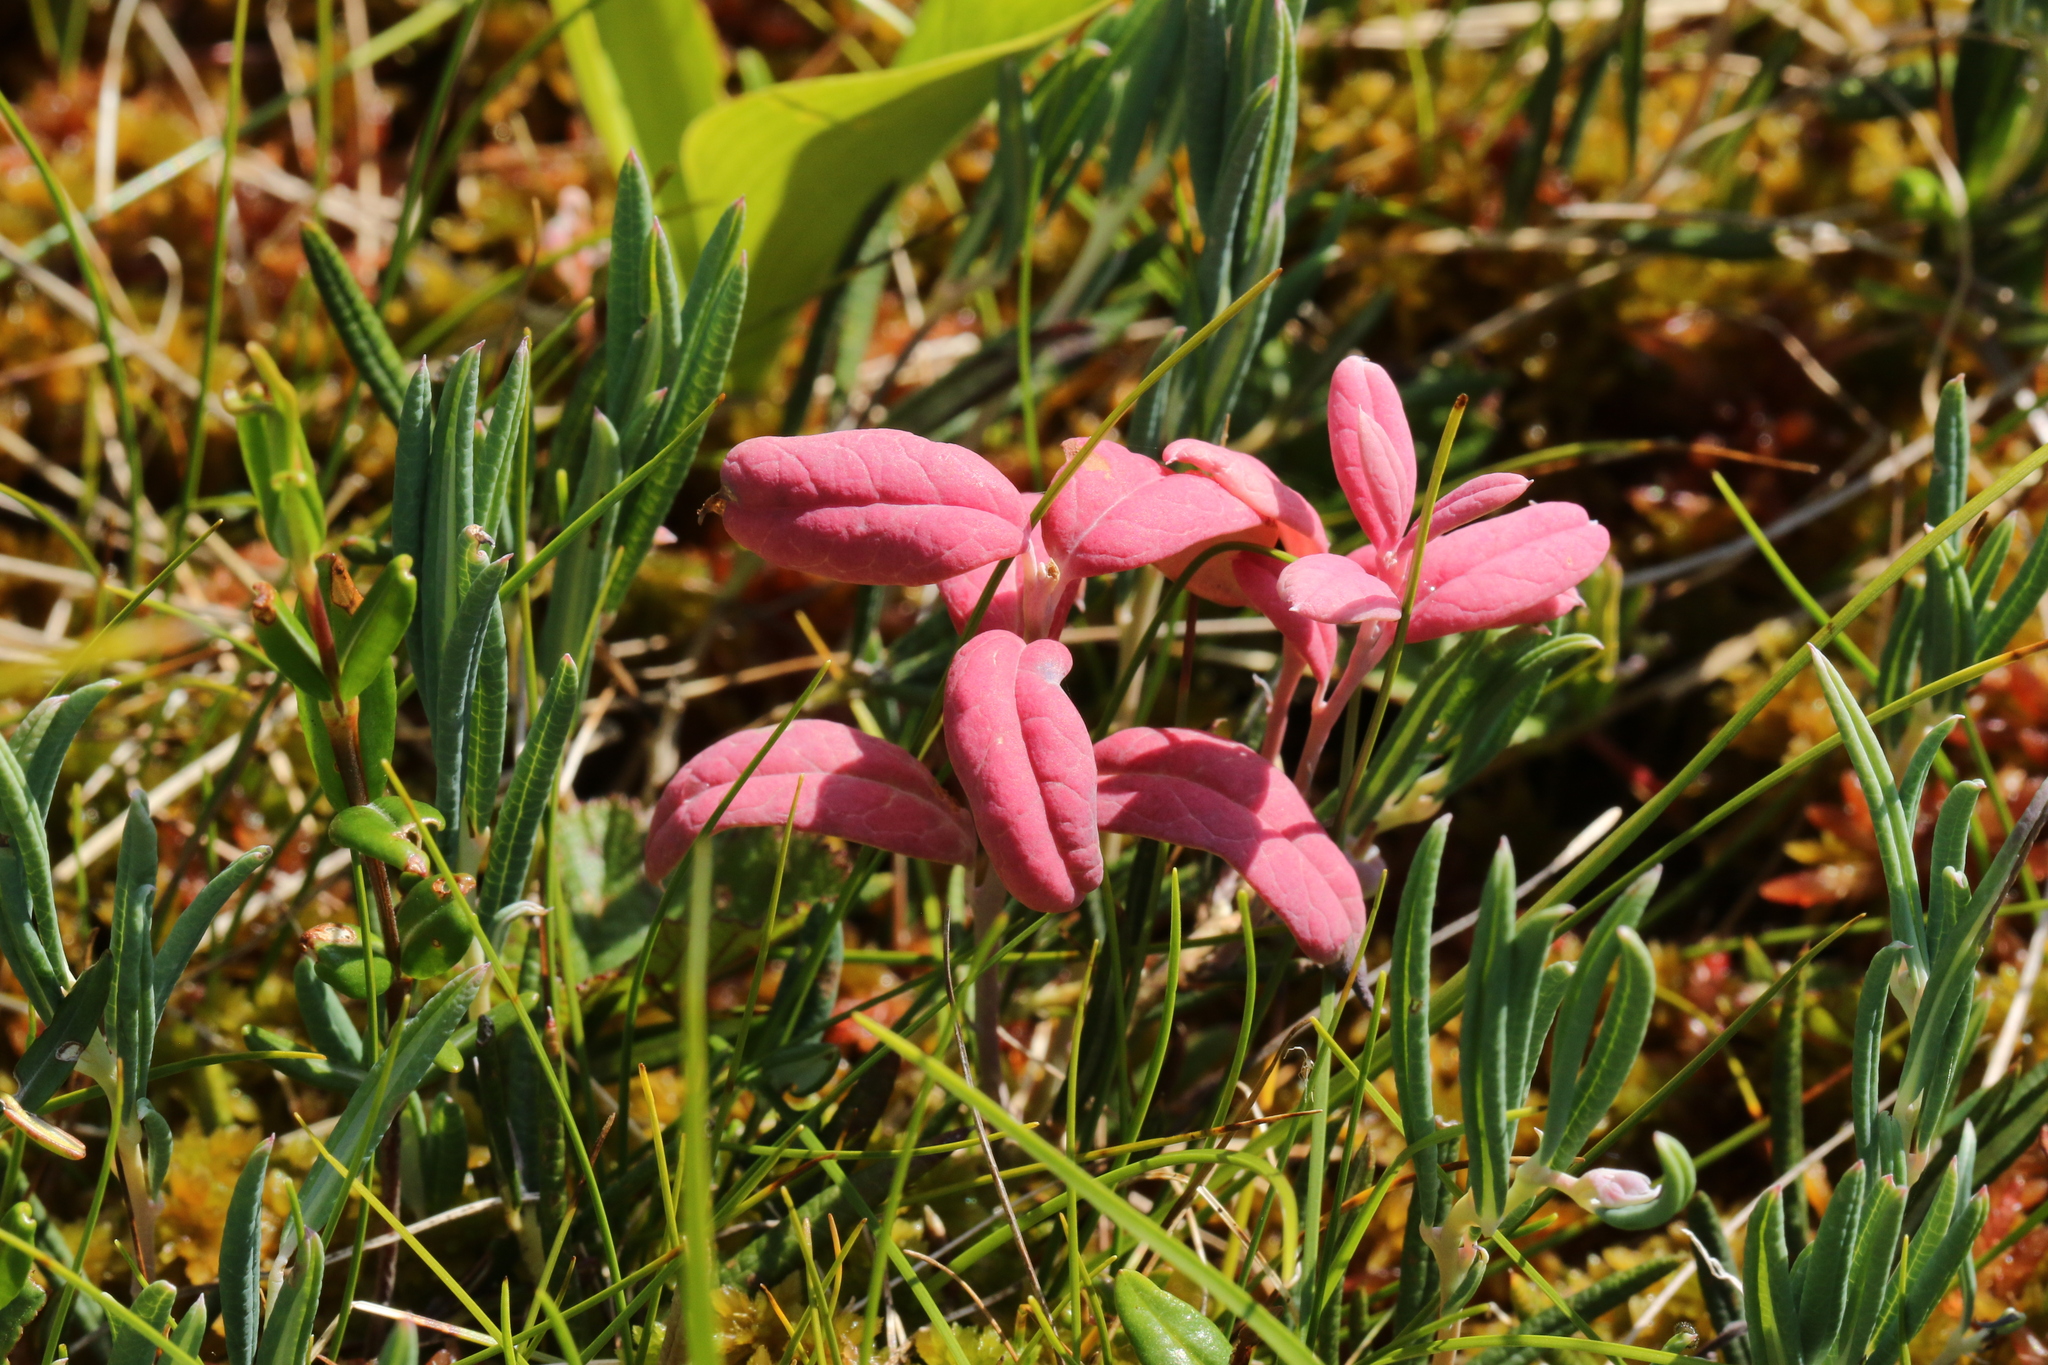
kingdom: Plantae
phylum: Tracheophyta
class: Magnoliopsida
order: Ericales
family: Ericaceae
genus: Andromeda
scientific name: Andromeda polifolia
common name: Bog-rosemary
